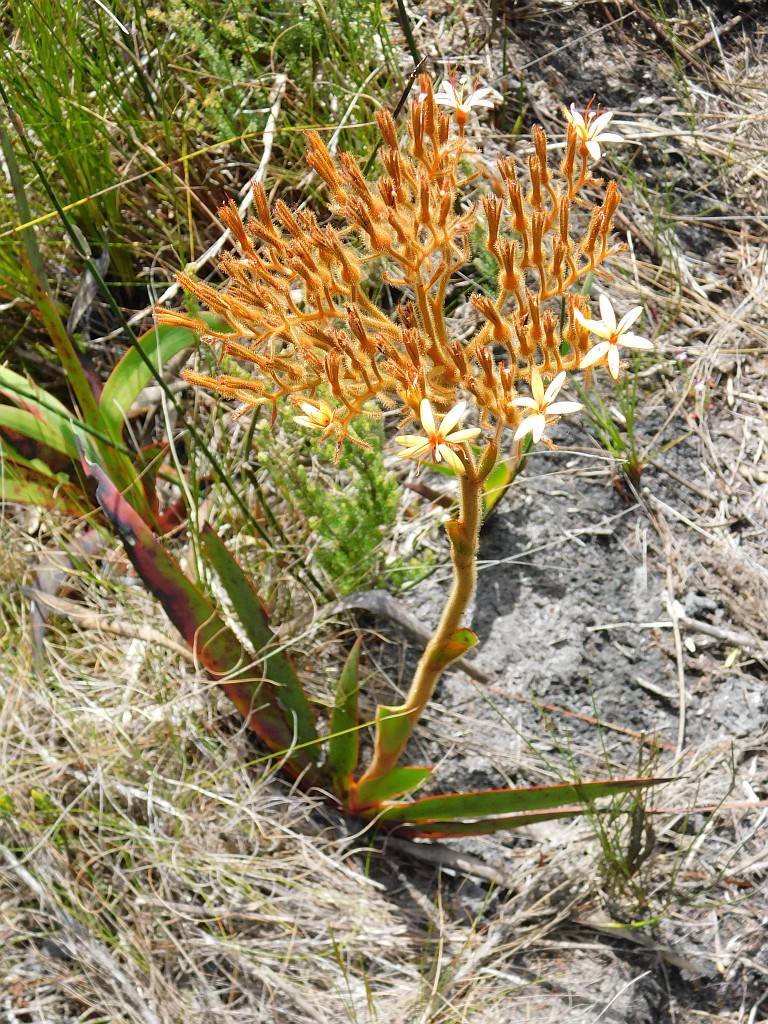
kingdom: Plantae
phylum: Tracheophyta
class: Liliopsida
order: Commelinales
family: Haemodoraceae
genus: Dilatris
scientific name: Dilatris viscosa
